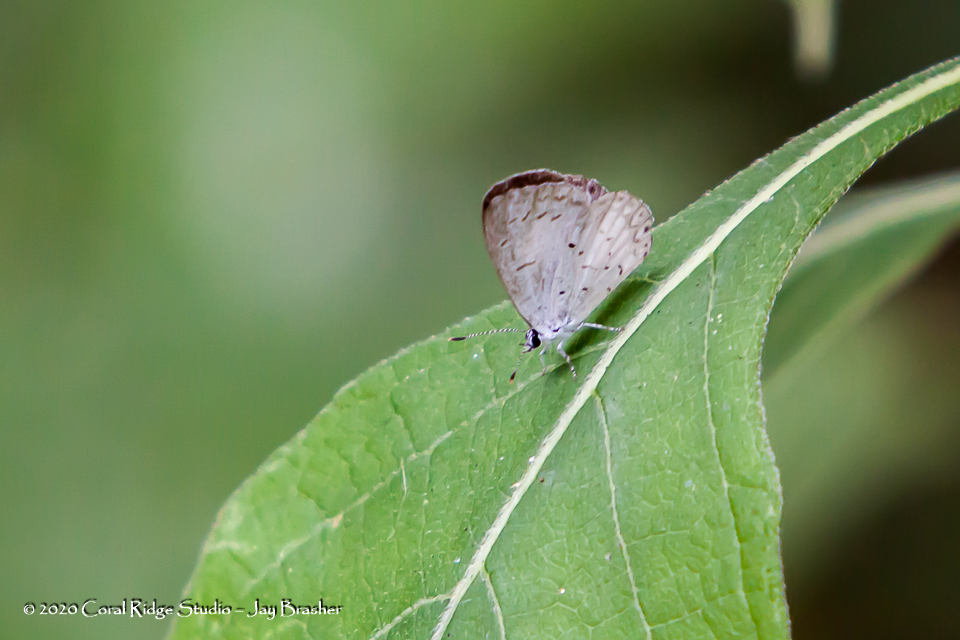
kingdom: Animalia
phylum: Arthropoda
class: Insecta
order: Lepidoptera
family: Lycaenidae
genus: Cyaniris
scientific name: Cyaniris neglecta
